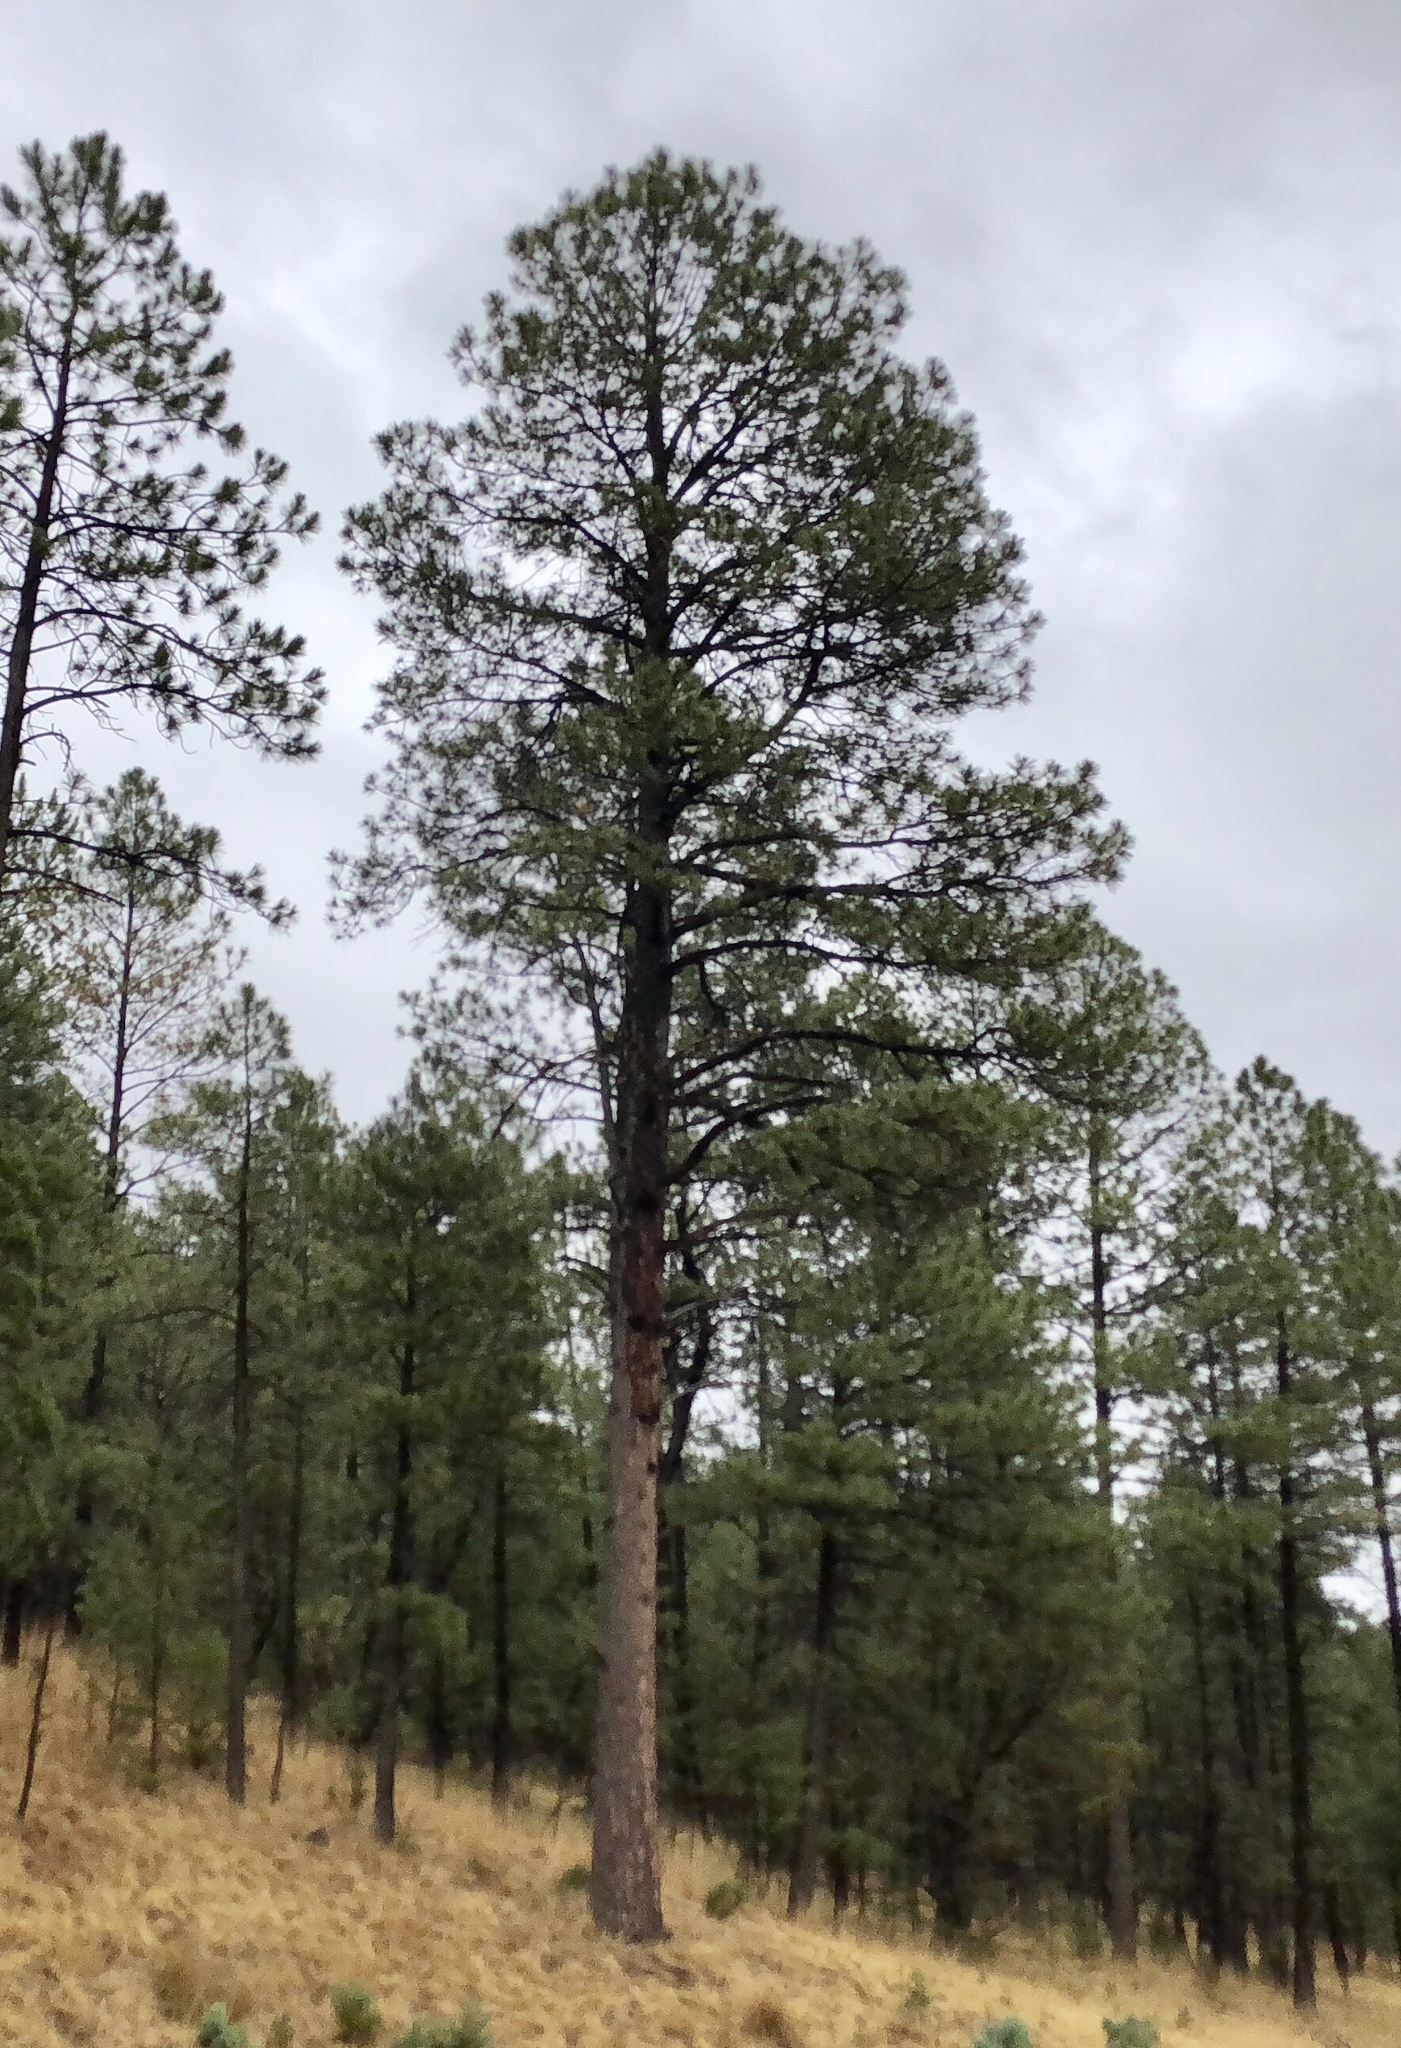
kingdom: Plantae
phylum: Tracheophyta
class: Pinopsida
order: Pinales
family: Pinaceae
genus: Pinus
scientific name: Pinus ponderosa
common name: Western yellow-pine
